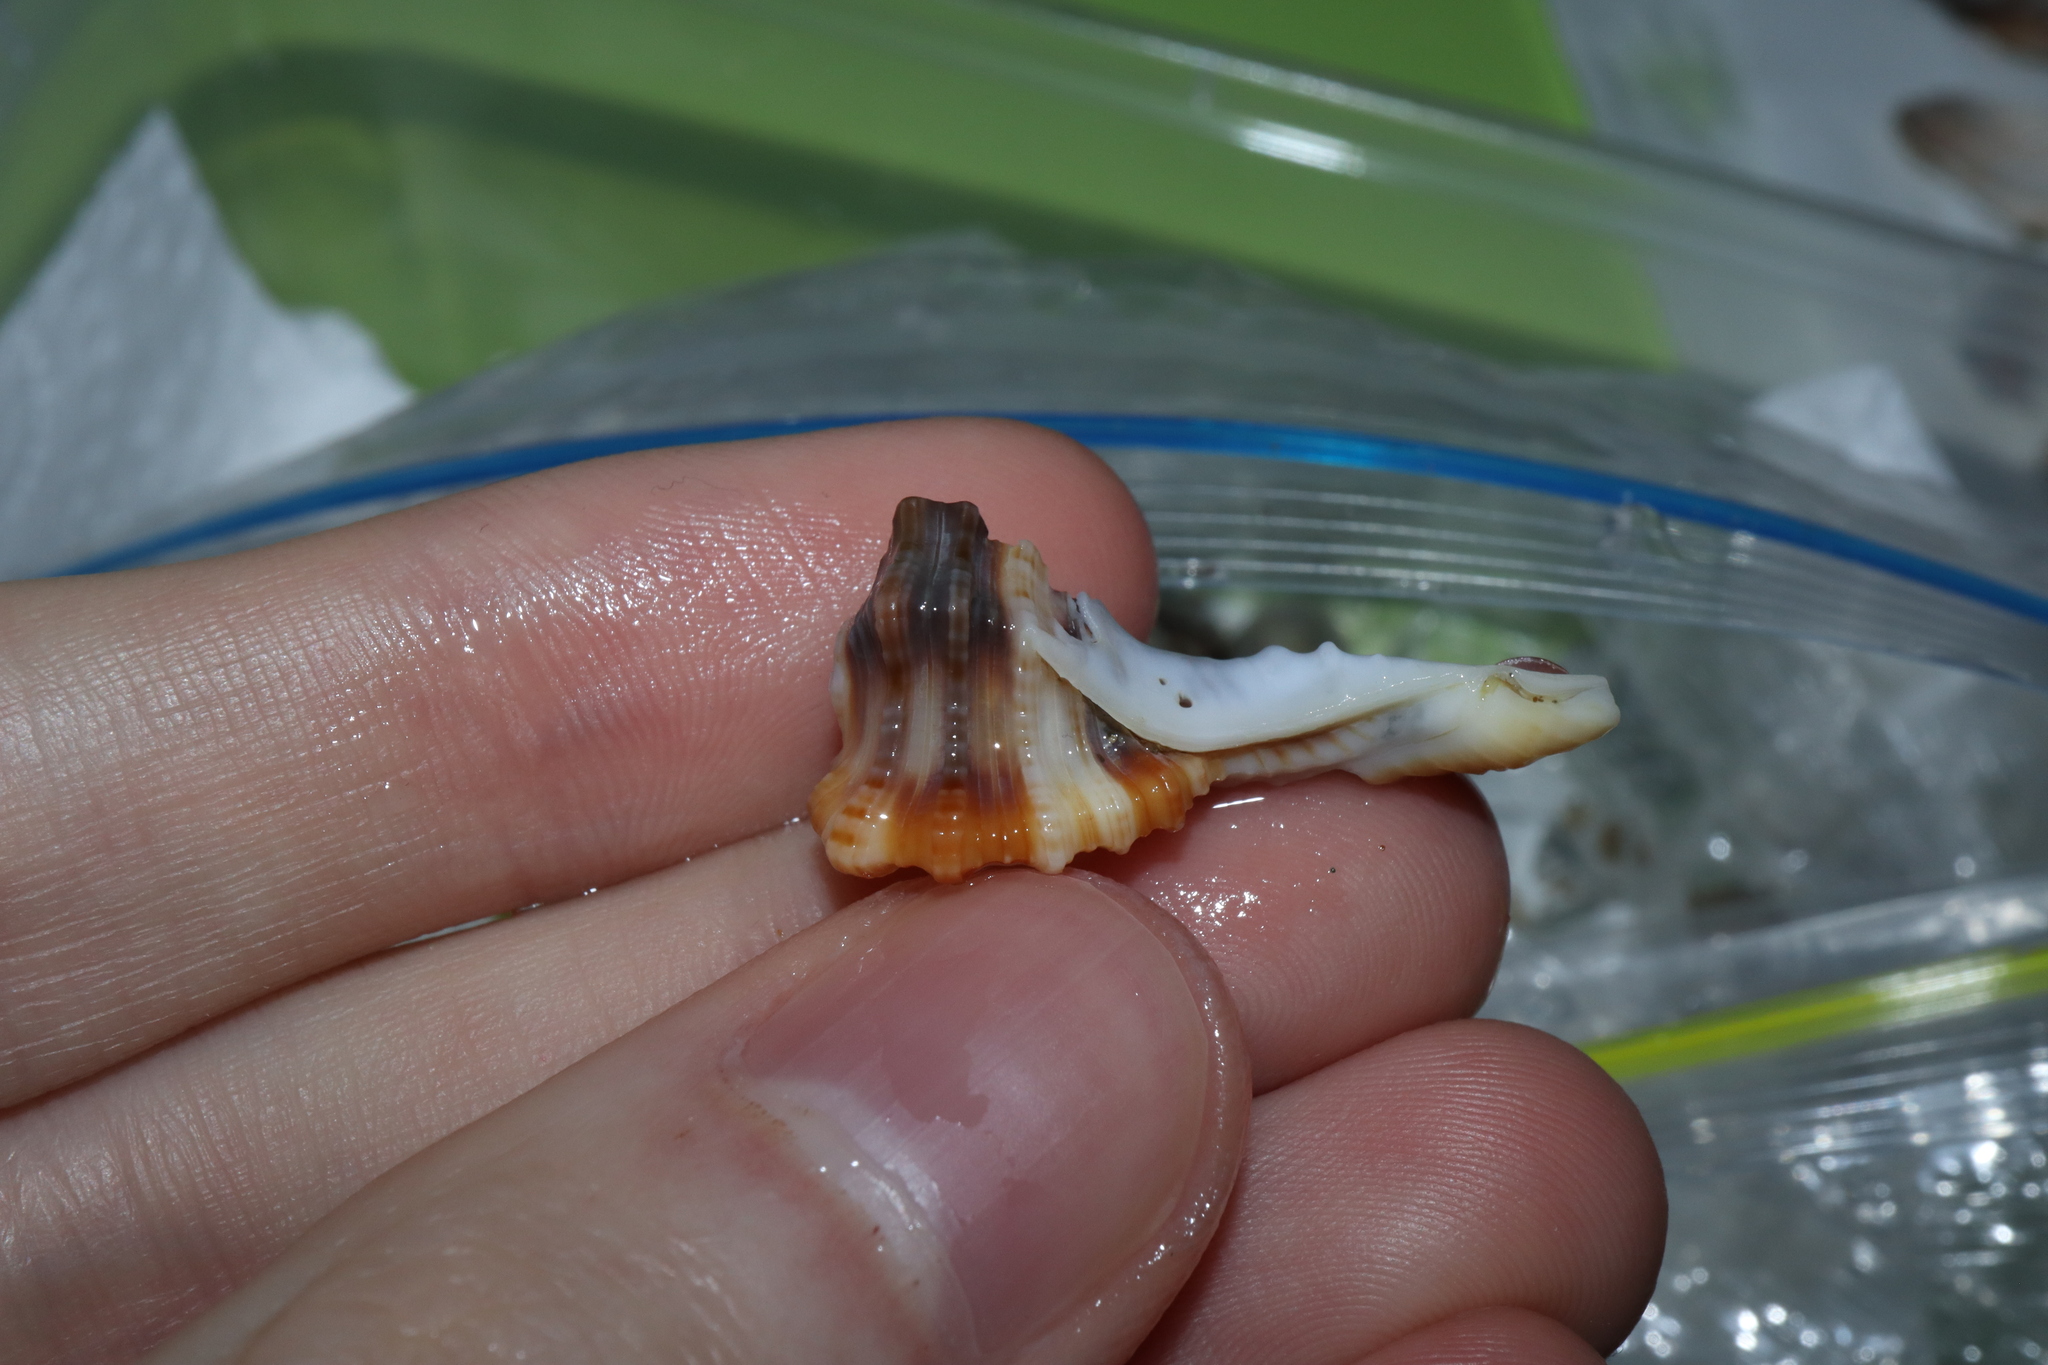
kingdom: Animalia
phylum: Mollusca
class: Gastropoda
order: Littorinimorpha
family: Cymatiidae
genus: Monoplex
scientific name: Monoplex exaratus
